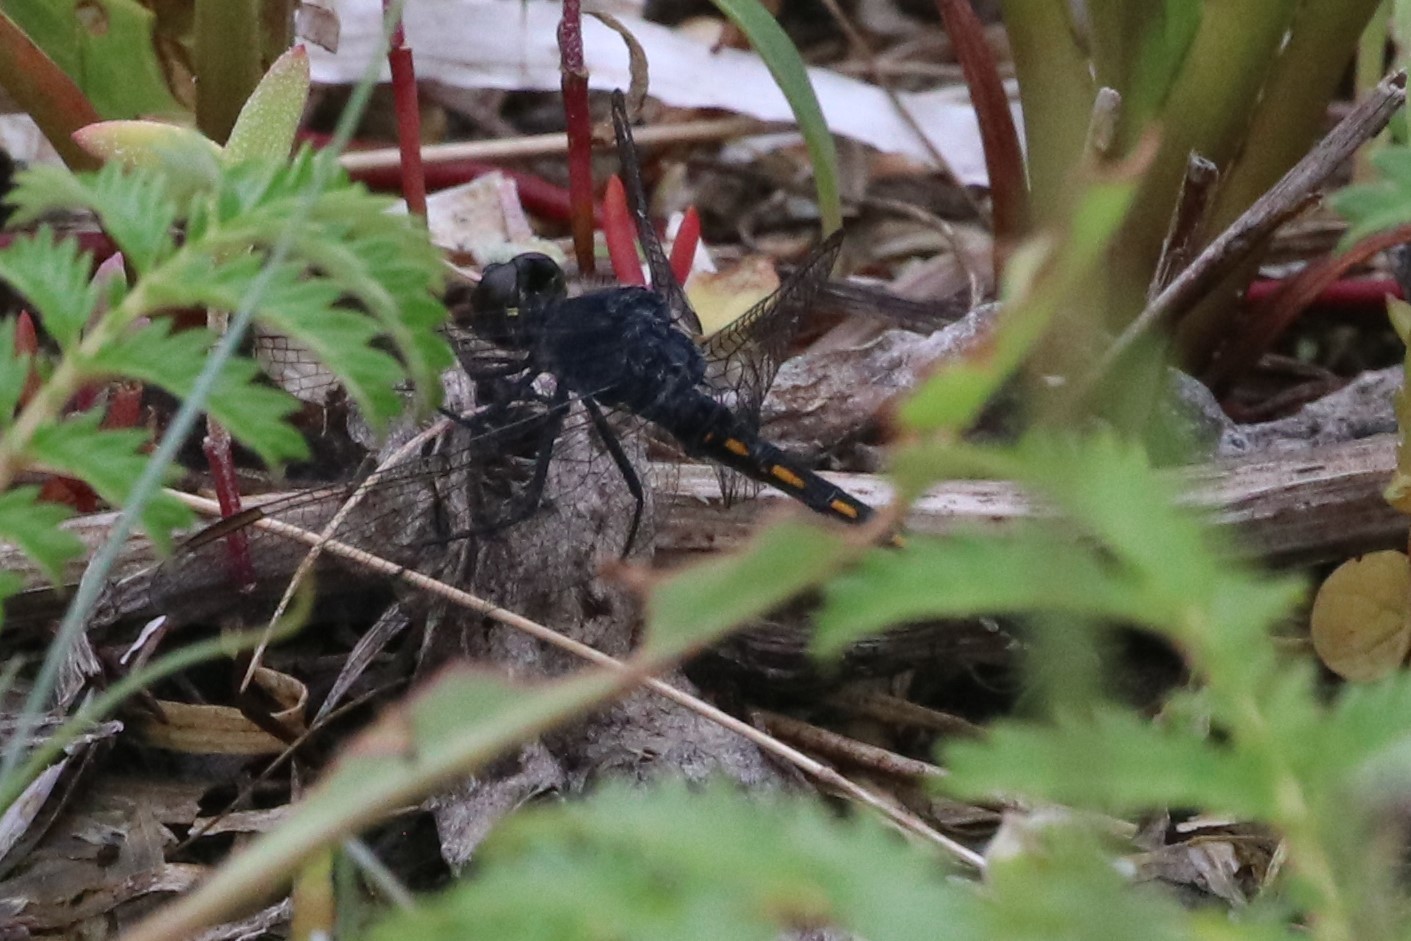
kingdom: Animalia
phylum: Arthropoda
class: Insecta
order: Odonata
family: Libellulidae
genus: Erythrodiplax
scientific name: Erythrodiplax berenice
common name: Seaside dragonlet
